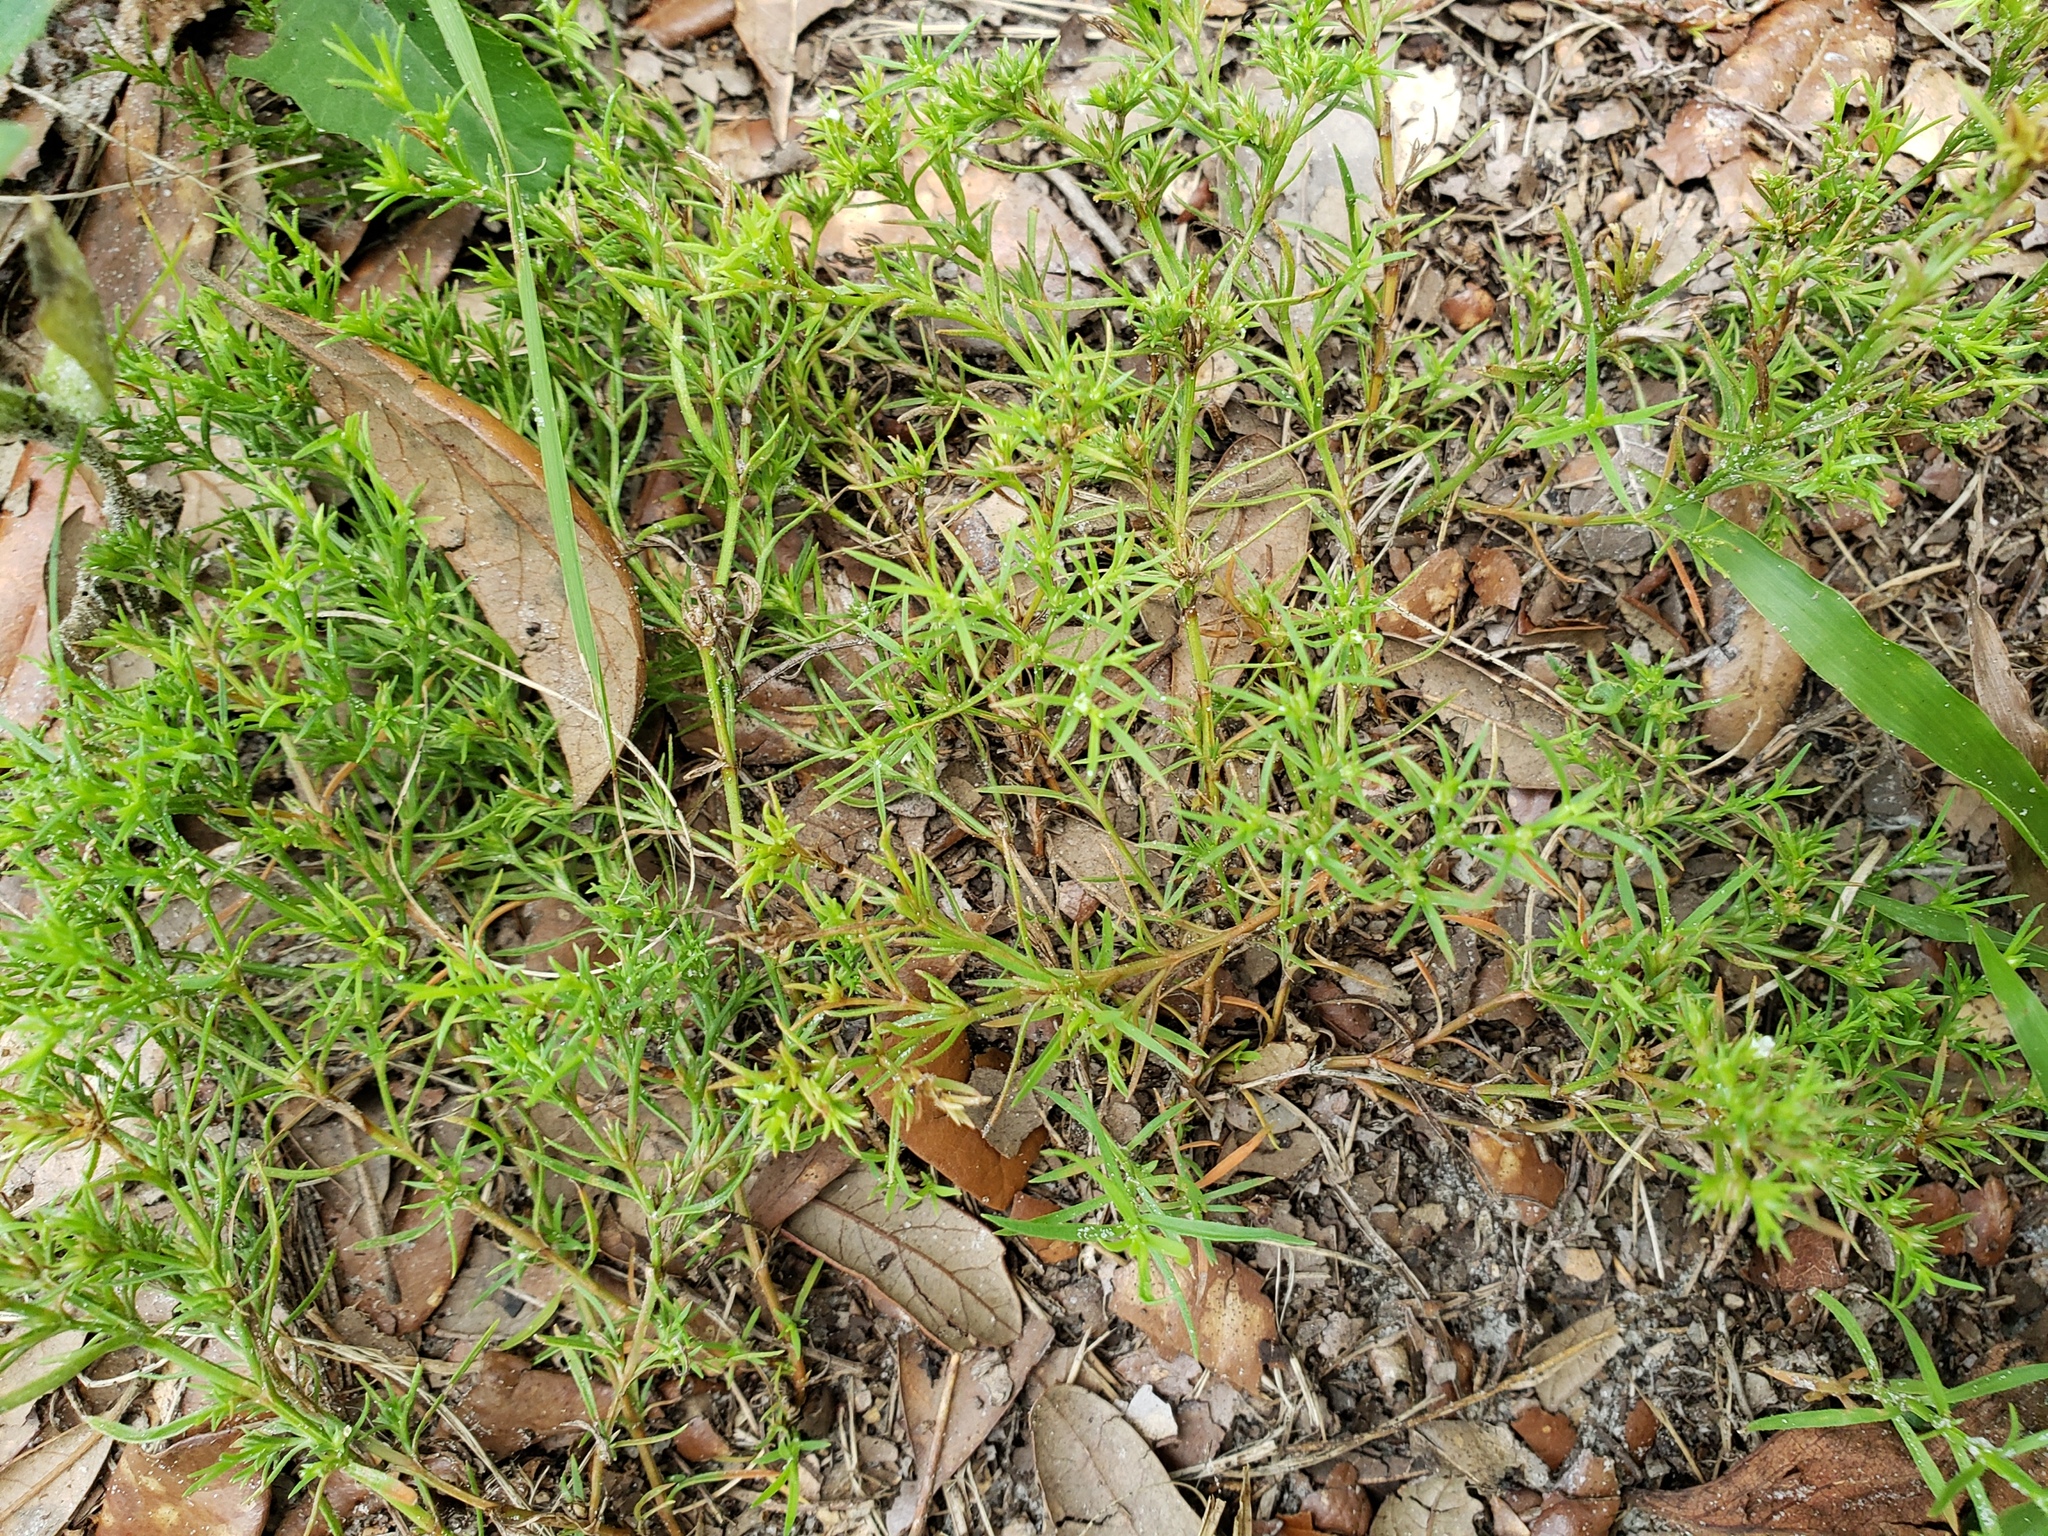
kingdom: Plantae
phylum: Tracheophyta
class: Magnoliopsida
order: Lamiales
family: Tetrachondraceae
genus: Polypremum
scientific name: Polypremum procumbens
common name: Juniper-leaf
